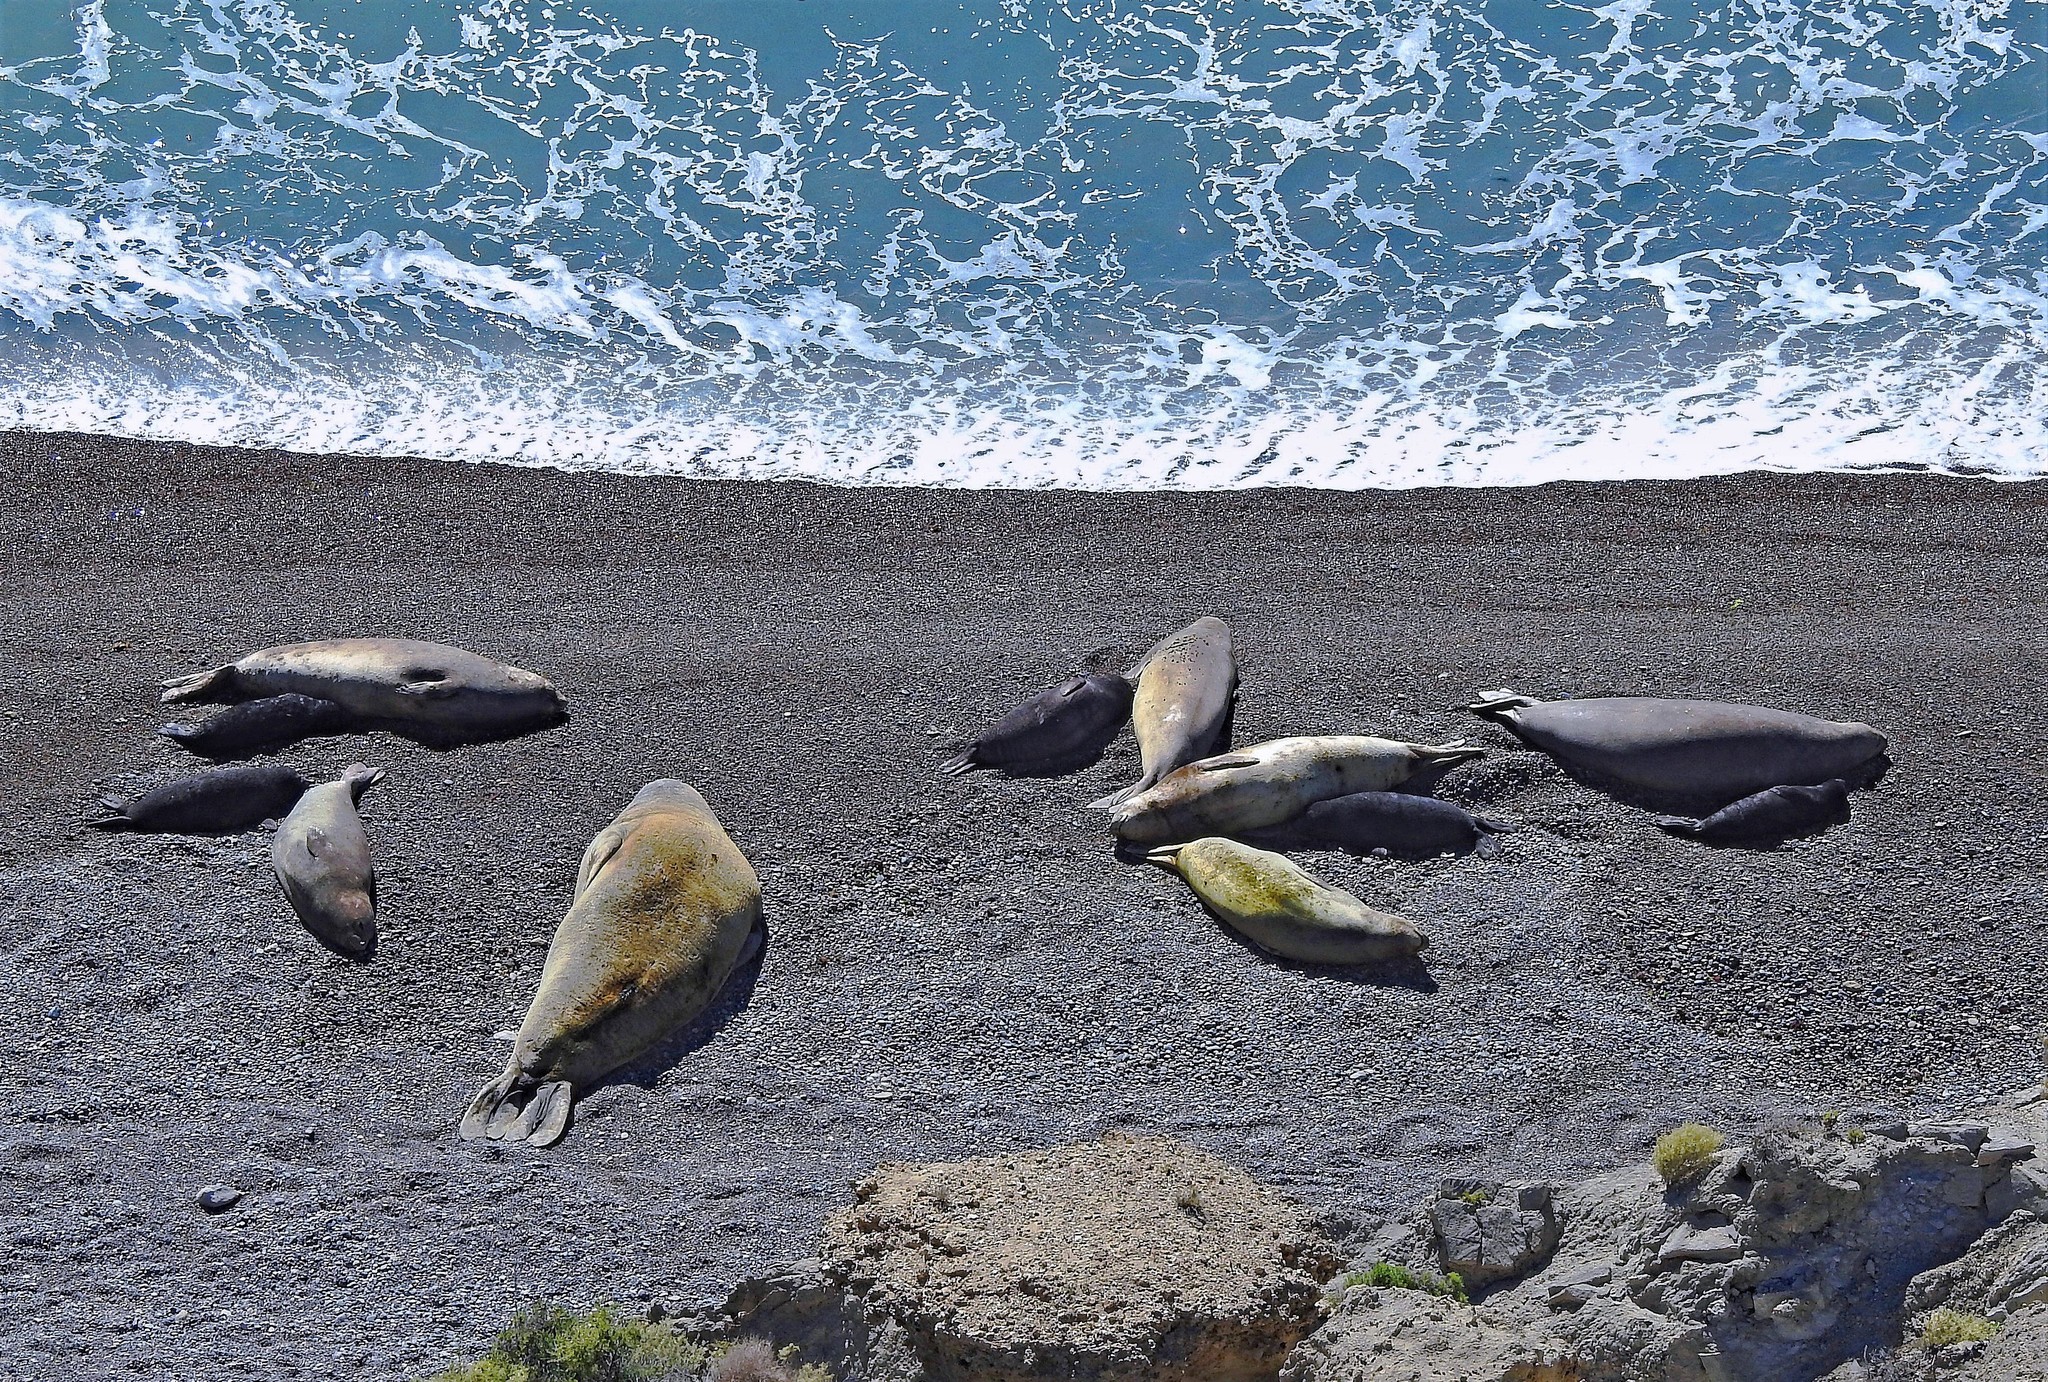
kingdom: Animalia
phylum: Chordata
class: Mammalia
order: Carnivora
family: Phocidae
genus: Mirounga
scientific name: Mirounga leonina
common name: Southern elephant seal
